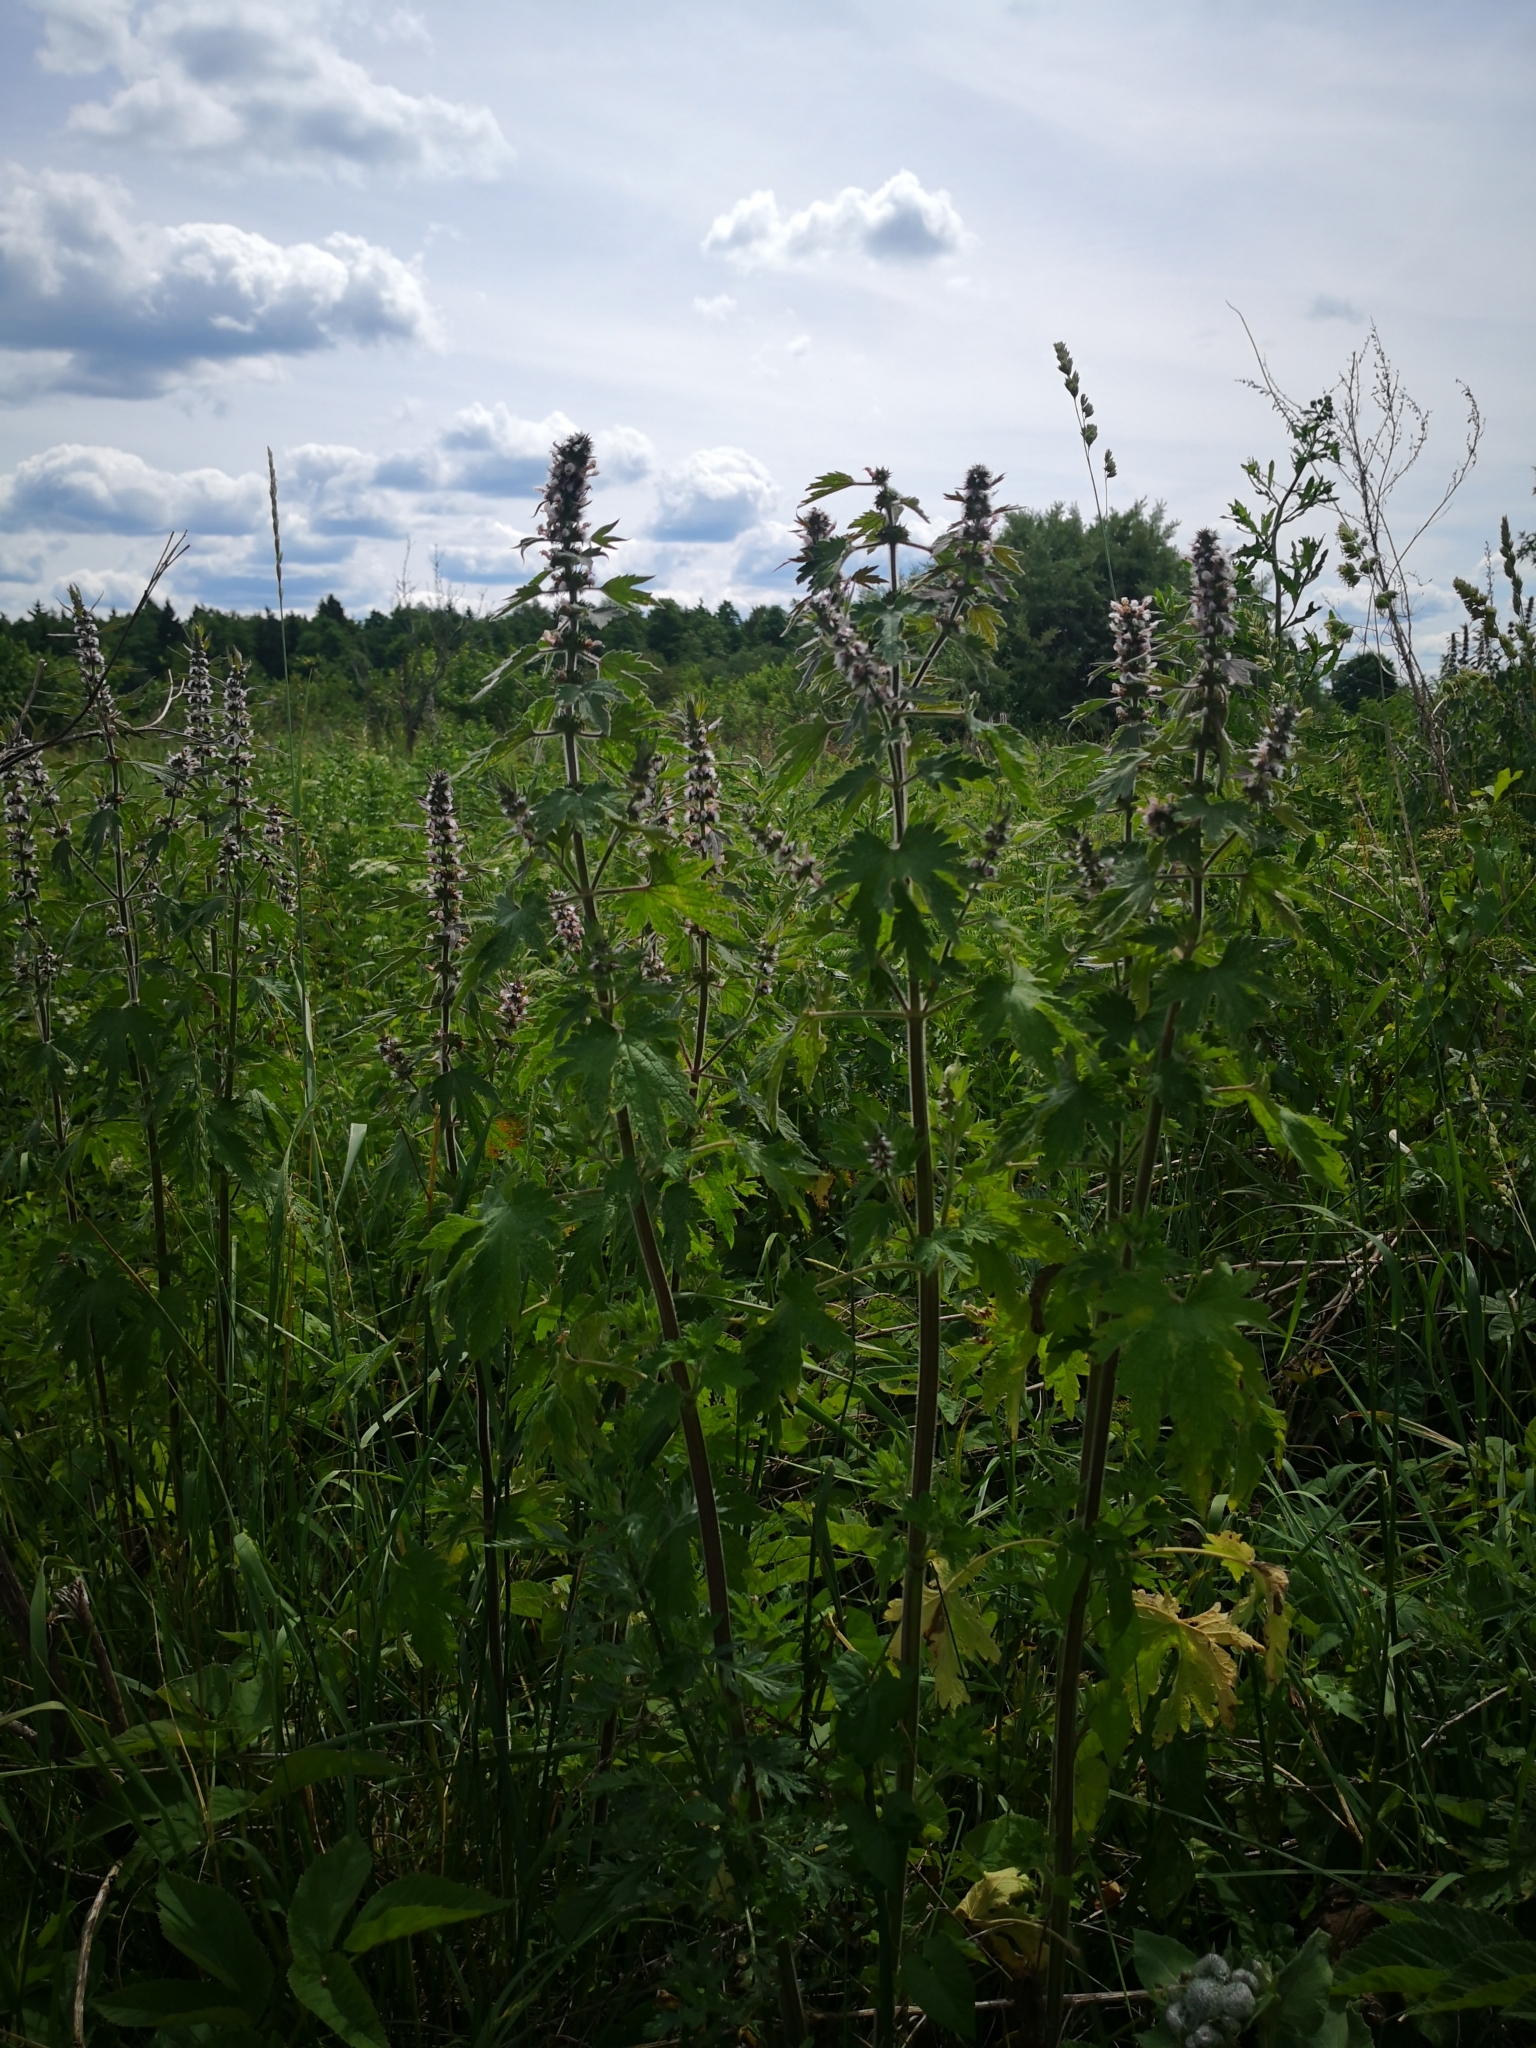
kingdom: Plantae
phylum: Tracheophyta
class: Magnoliopsida
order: Lamiales
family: Lamiaceae
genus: Leonurus
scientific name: Leonurus quinquelobatus
